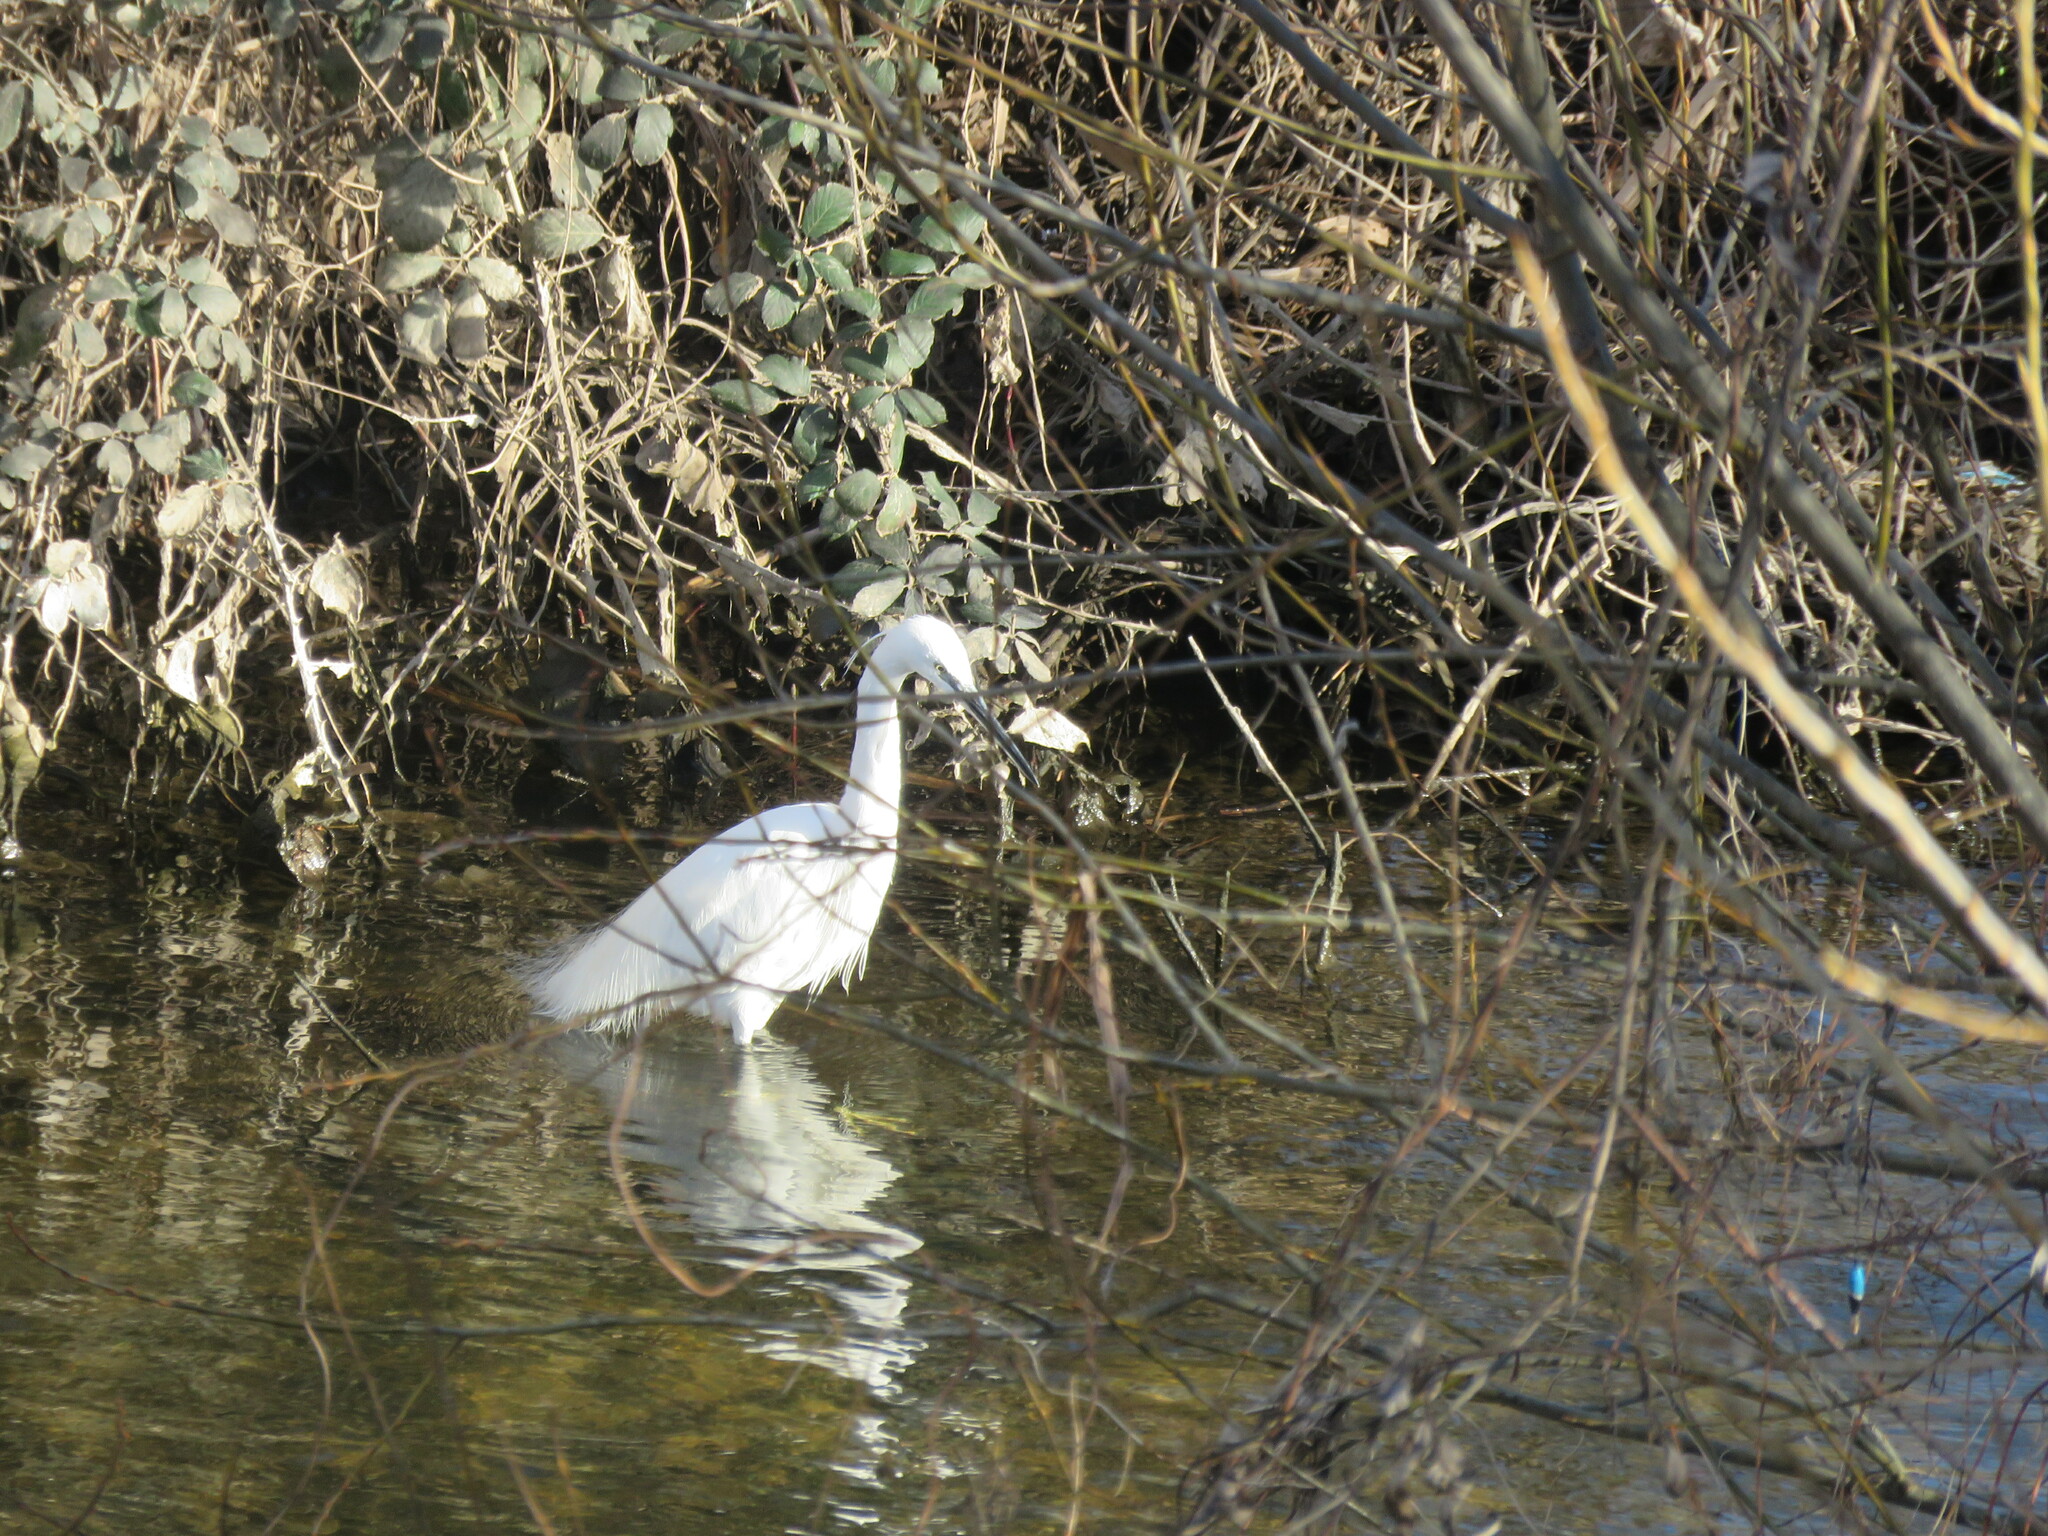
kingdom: Animalia
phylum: Chordata
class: Aves
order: Pelecaniformes
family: Ardeidae
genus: Egretta
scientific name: Egretta garzetta
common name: Little egret
